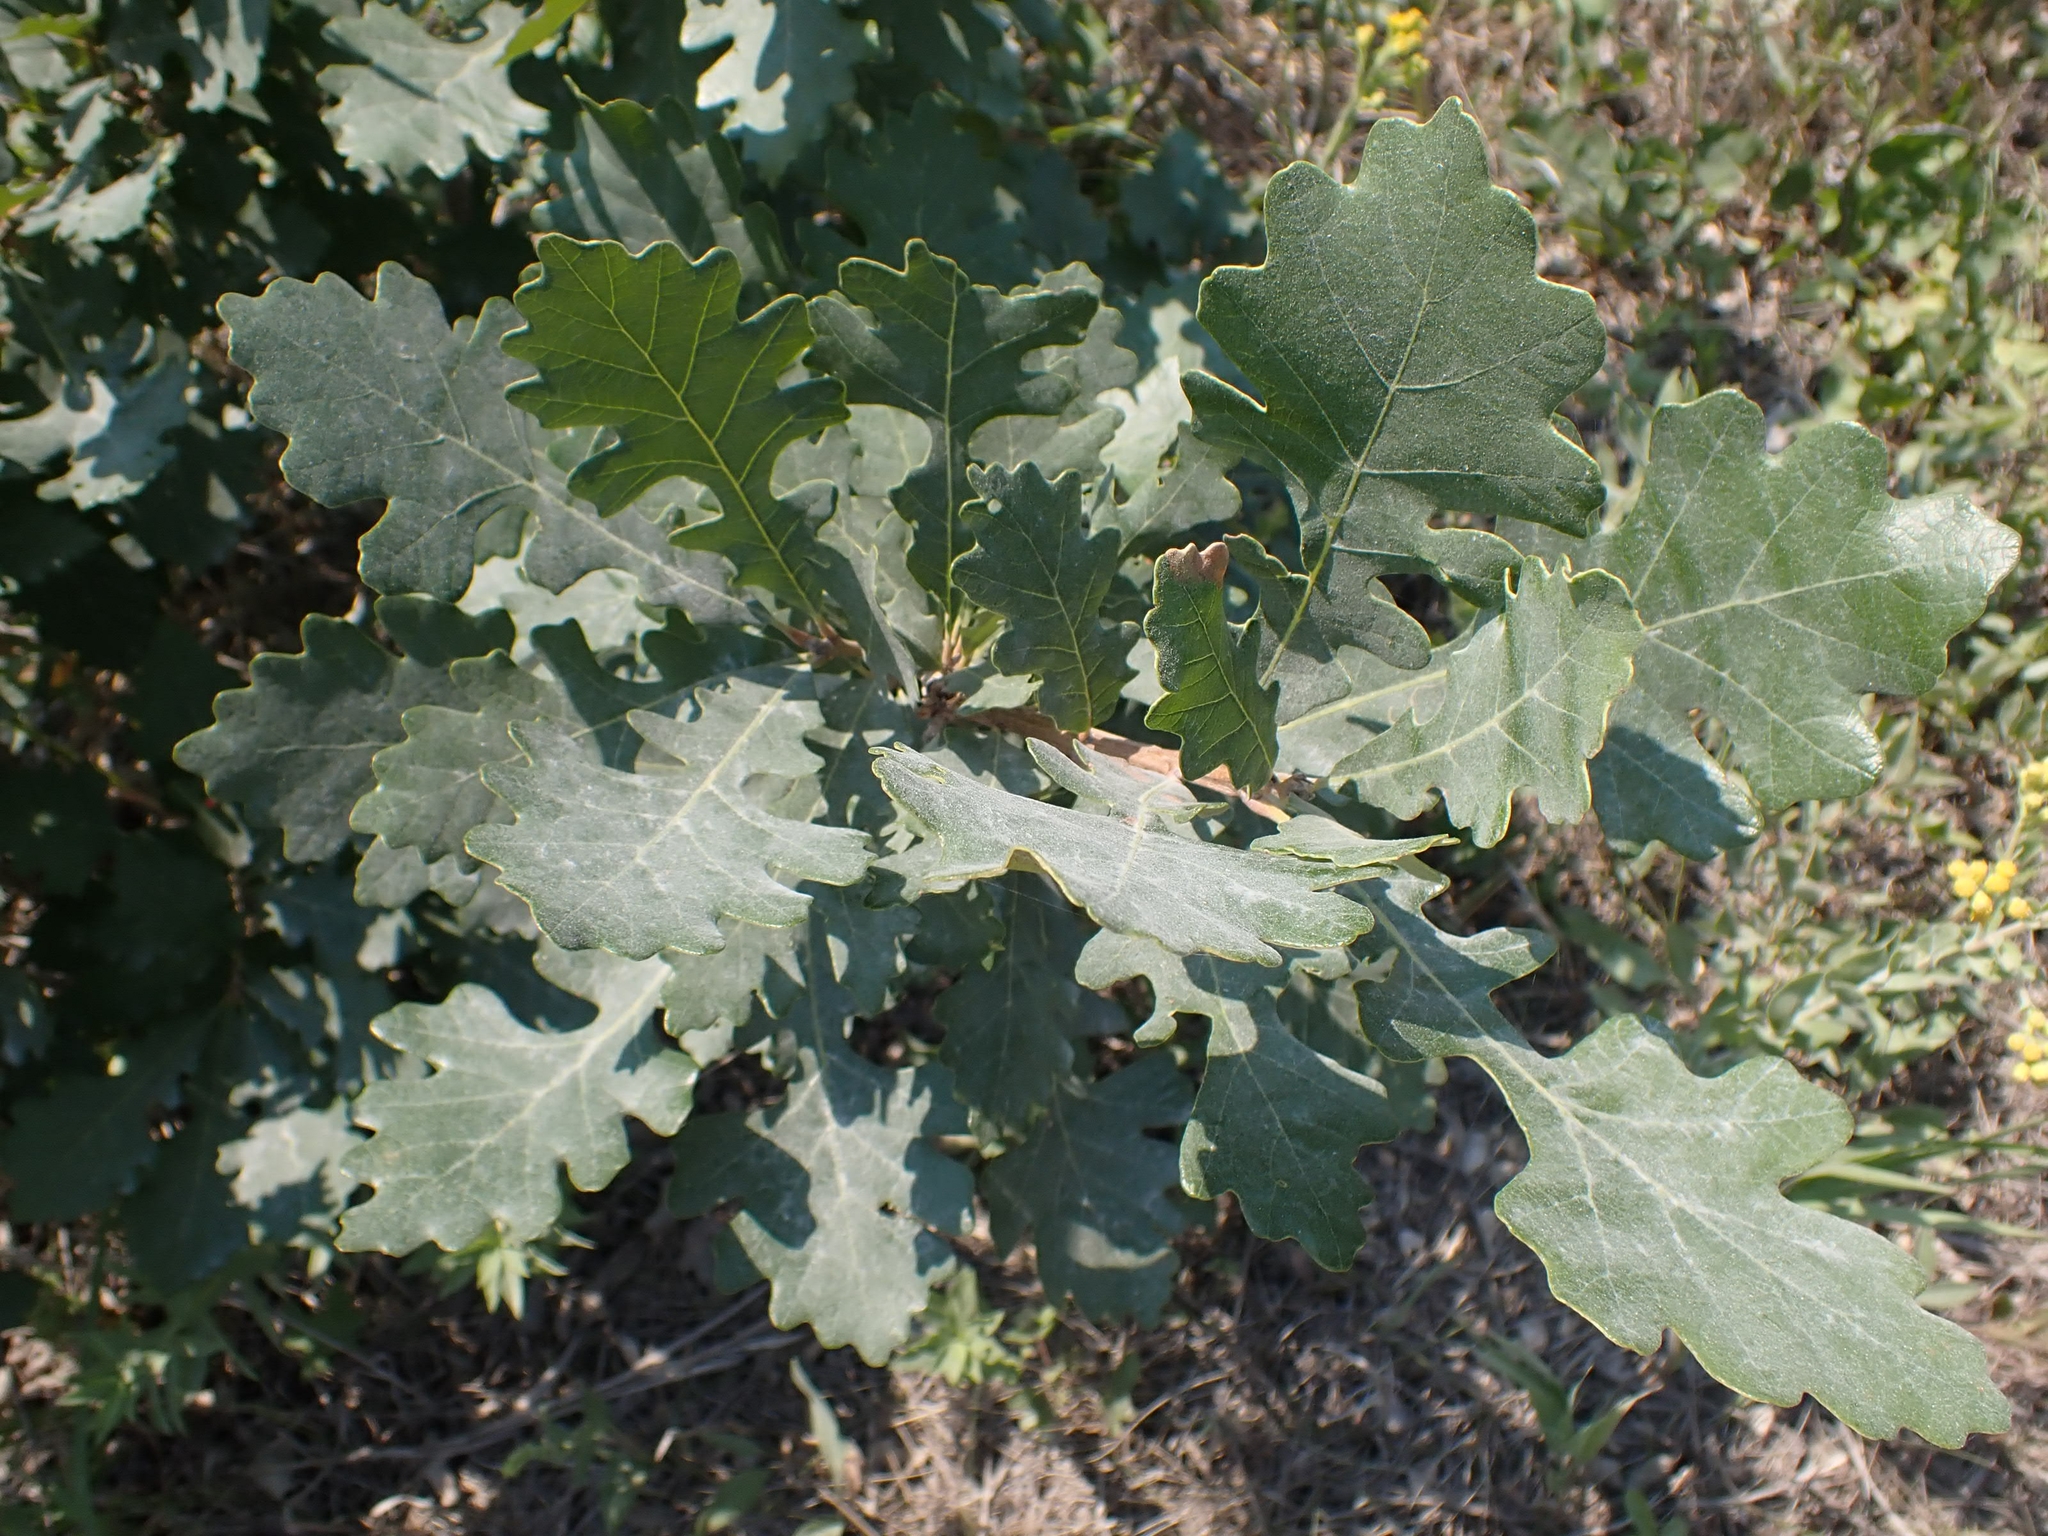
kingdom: Plantae
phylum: Tracheophyta
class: Magnoliopsida
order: Fagales
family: Fagaceae
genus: Quercus
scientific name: Quercus macrocarpa
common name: Bur oak
